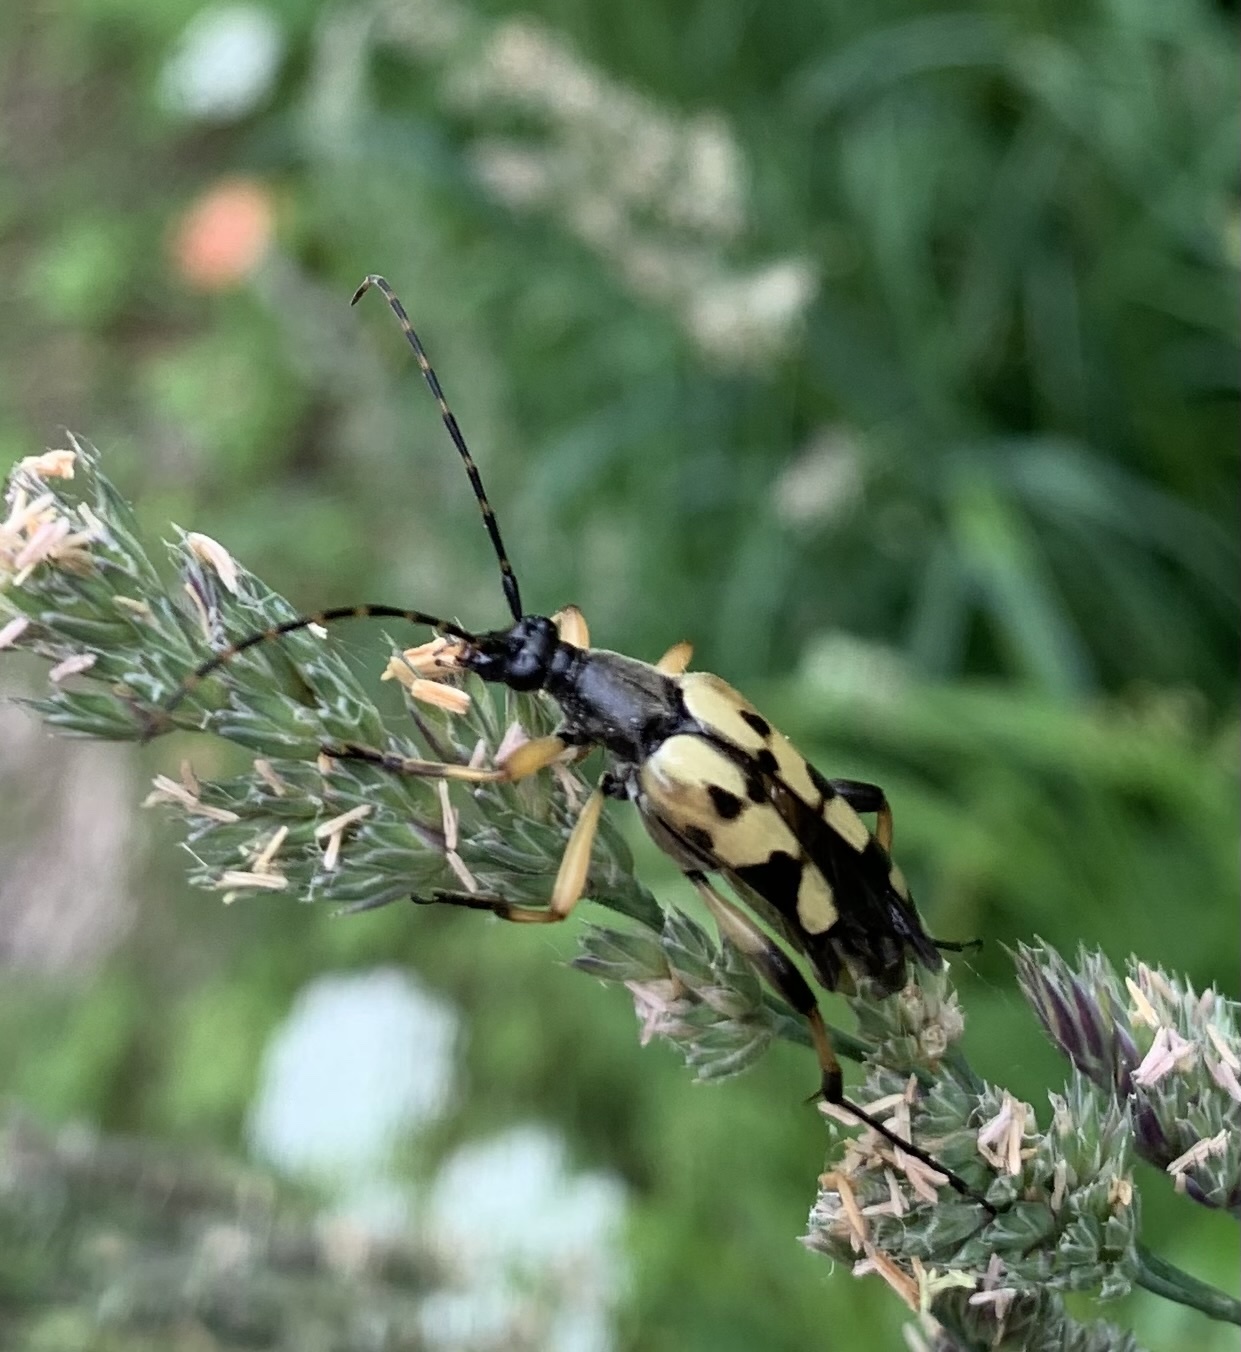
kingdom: Animalia
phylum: Arthropoda
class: Insecta
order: Coleoptera
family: Cerambycidae
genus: Rutpela
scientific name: Rutpela maculata
